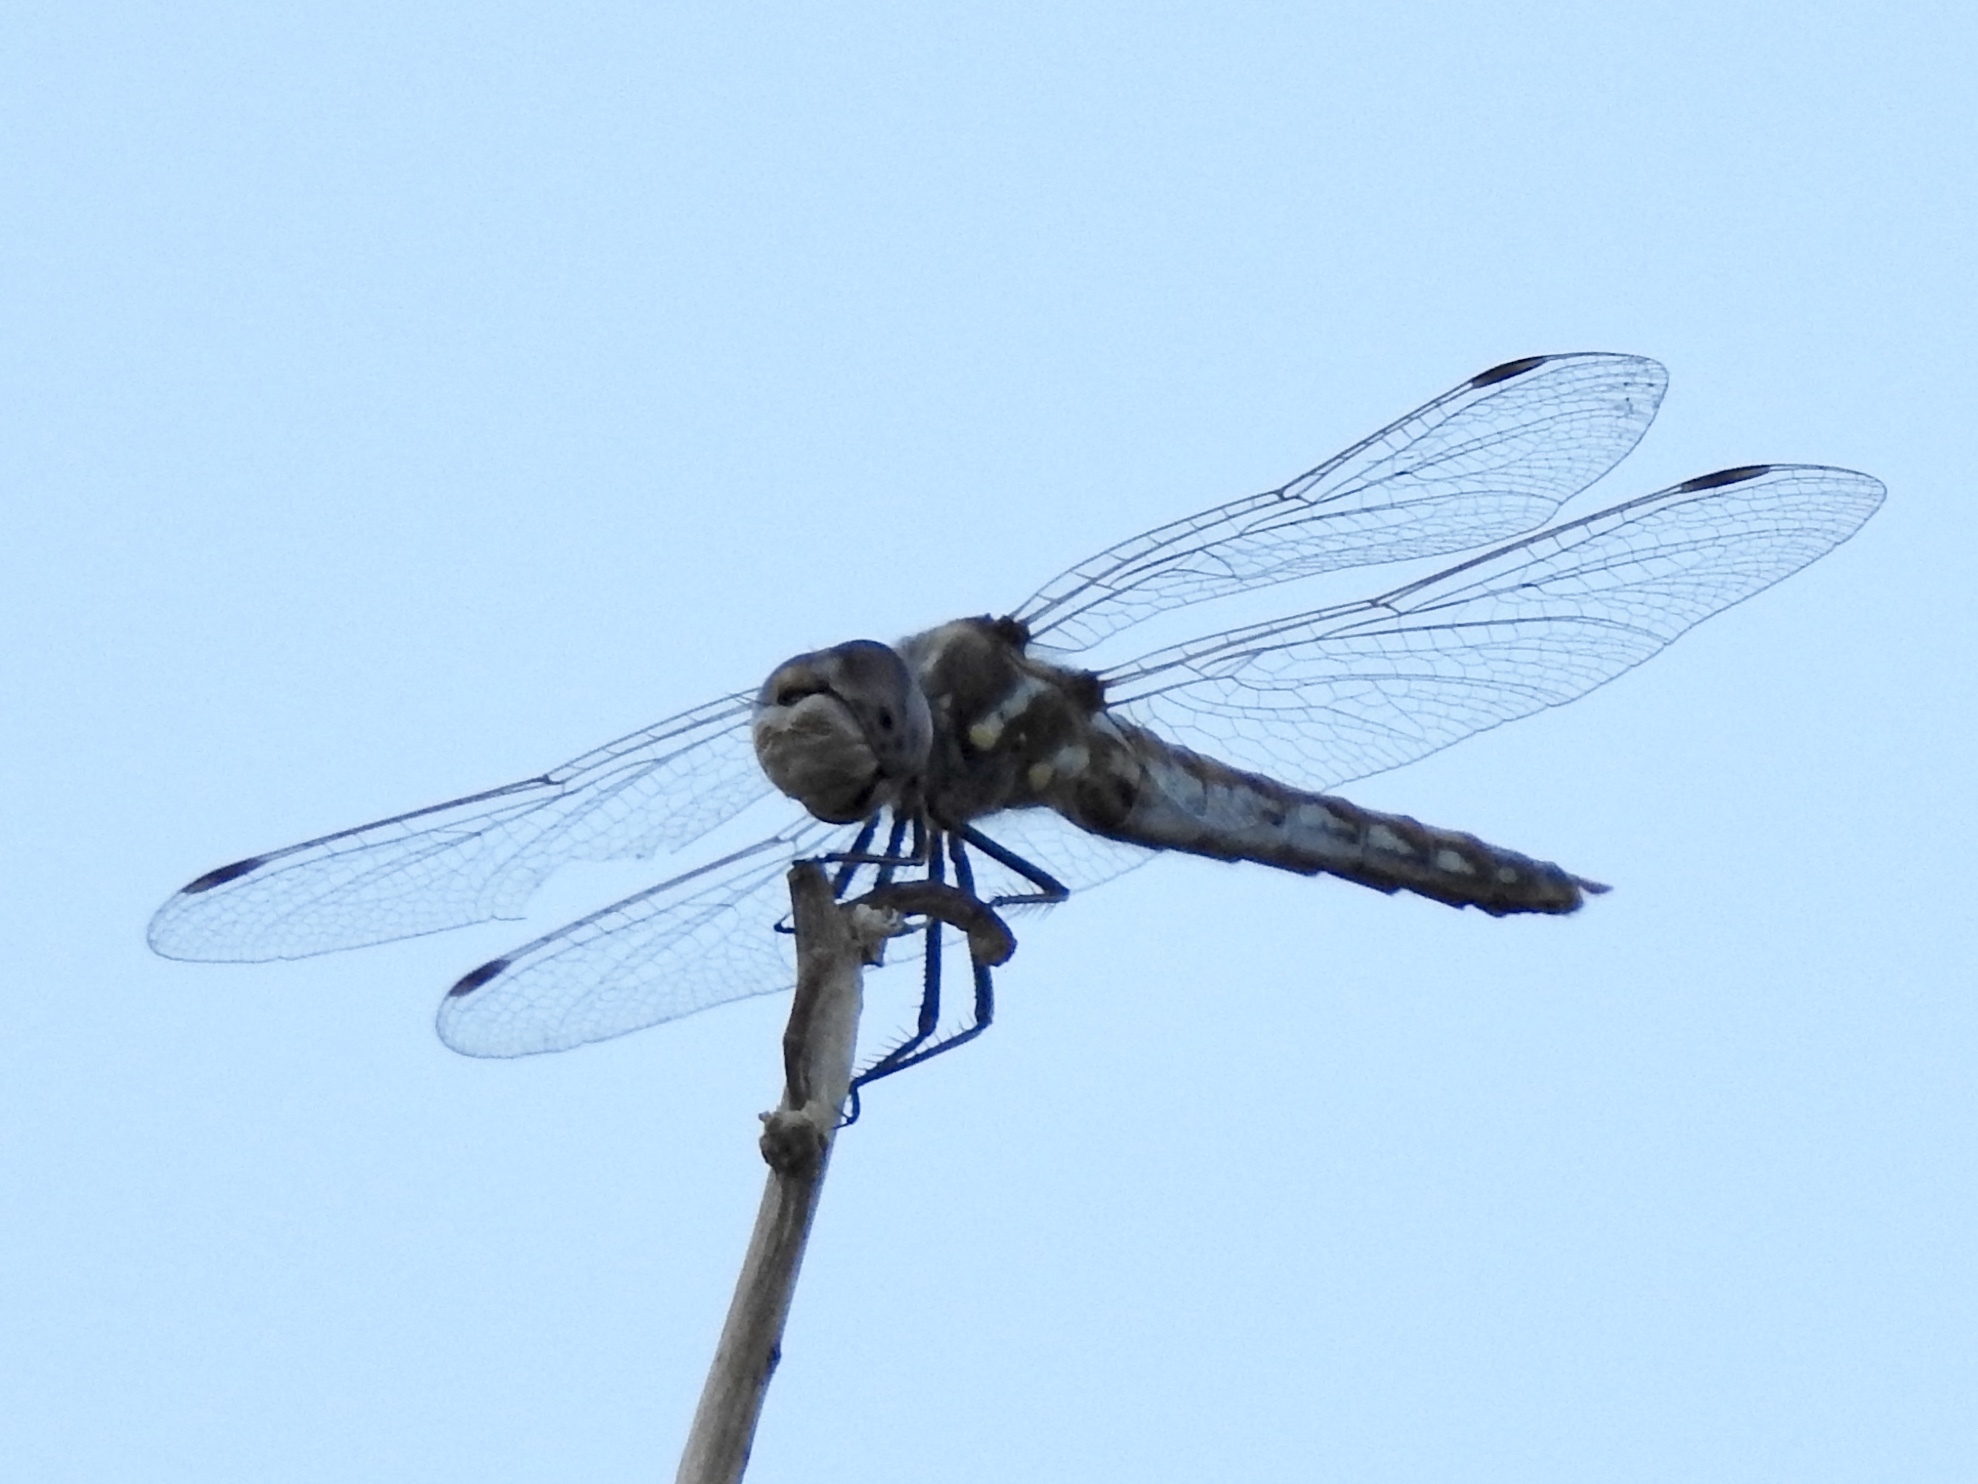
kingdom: Animalia
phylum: Arthropoda
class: Insecta
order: Odonata
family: Libellulidae
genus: Sympetrum
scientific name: Sympetrum corruptum
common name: Variegated meadowhawk
